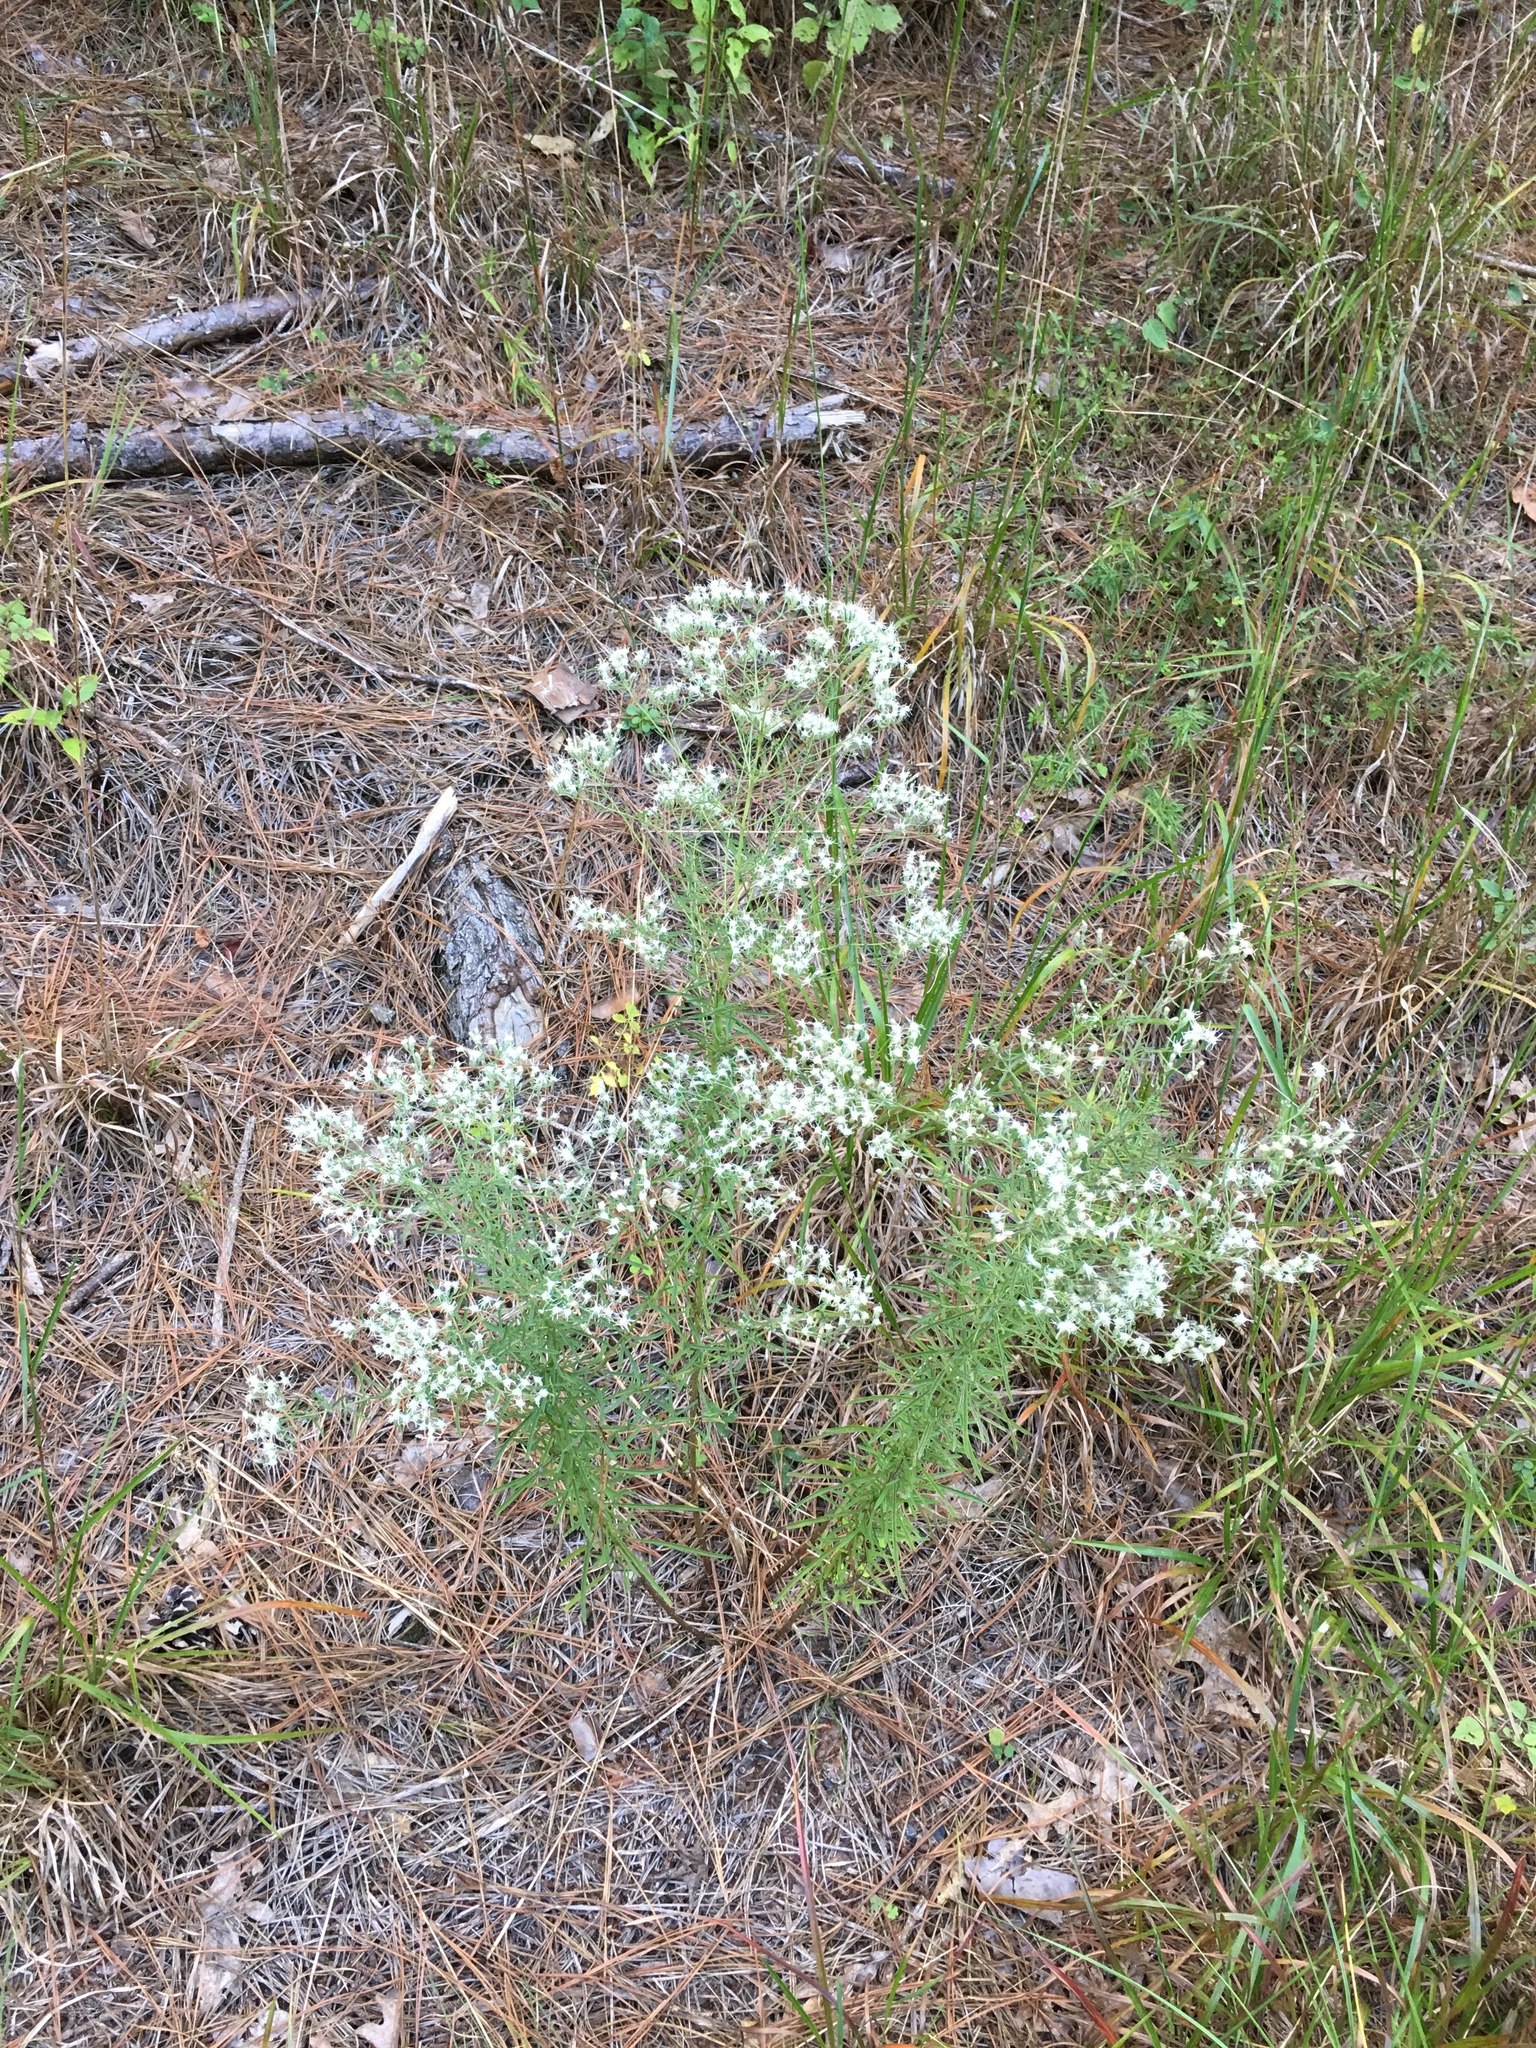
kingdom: Plantae
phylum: Tracheophyta
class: Magnoliopsida
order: Asterales
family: Asteraceae
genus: Eupatorium
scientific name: Eupatorium hyssopifolium
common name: Hyssop-leaf thoroughwort
